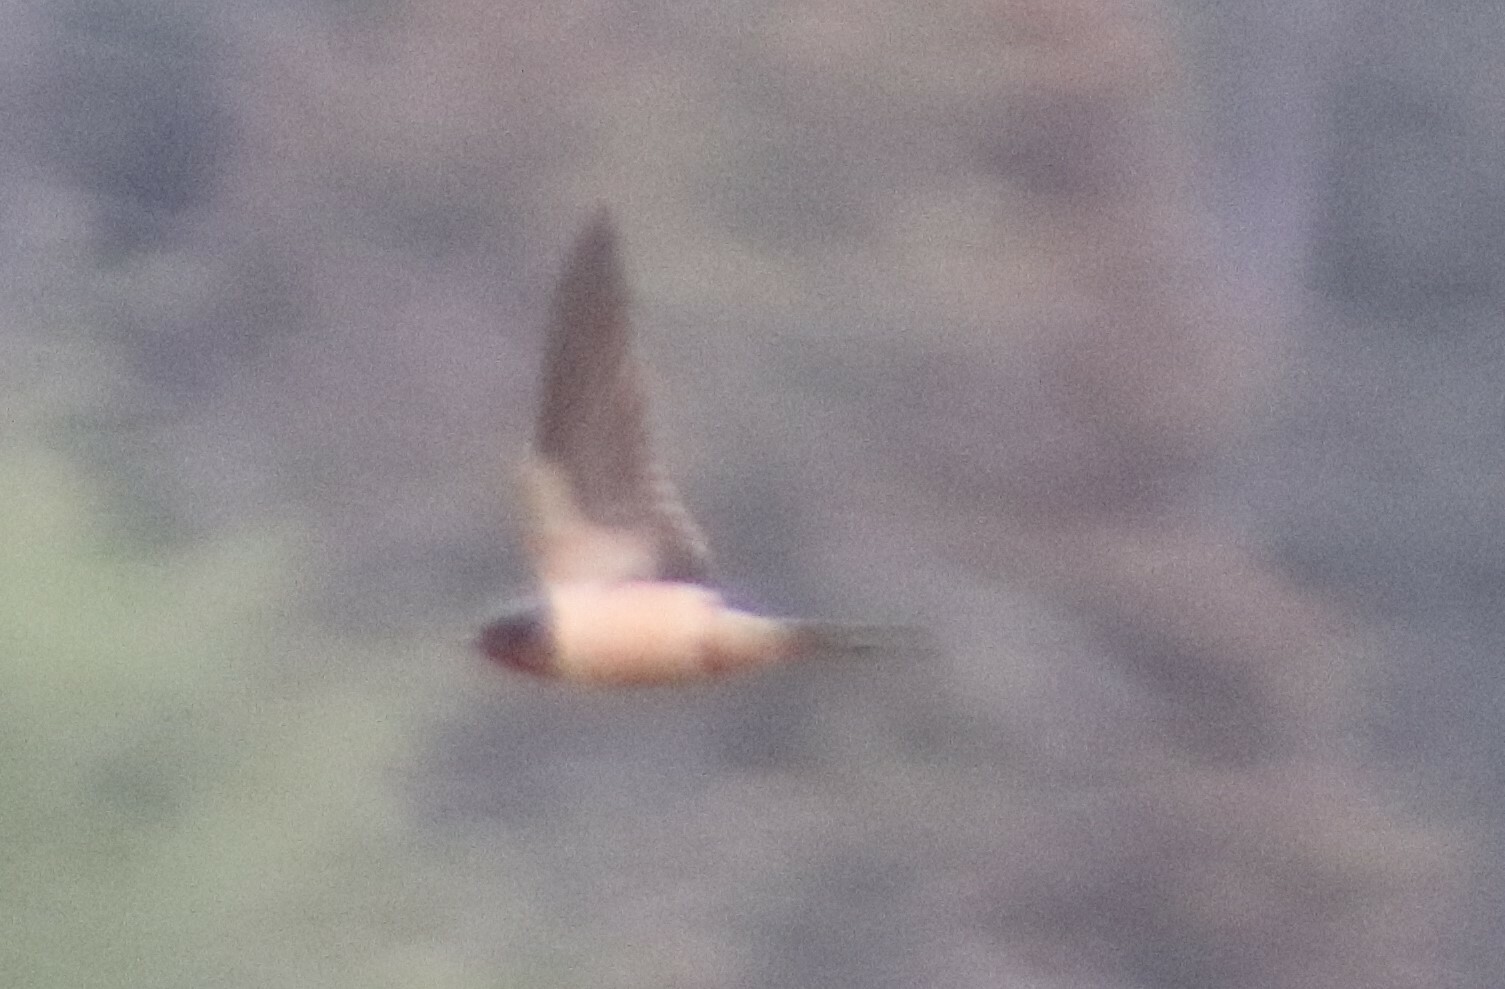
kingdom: Animalia
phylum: Chordata
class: Aves
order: Passeriformes
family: Hirundinidae
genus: Hirundo
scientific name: Hirundo rustica
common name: Barn swallow
